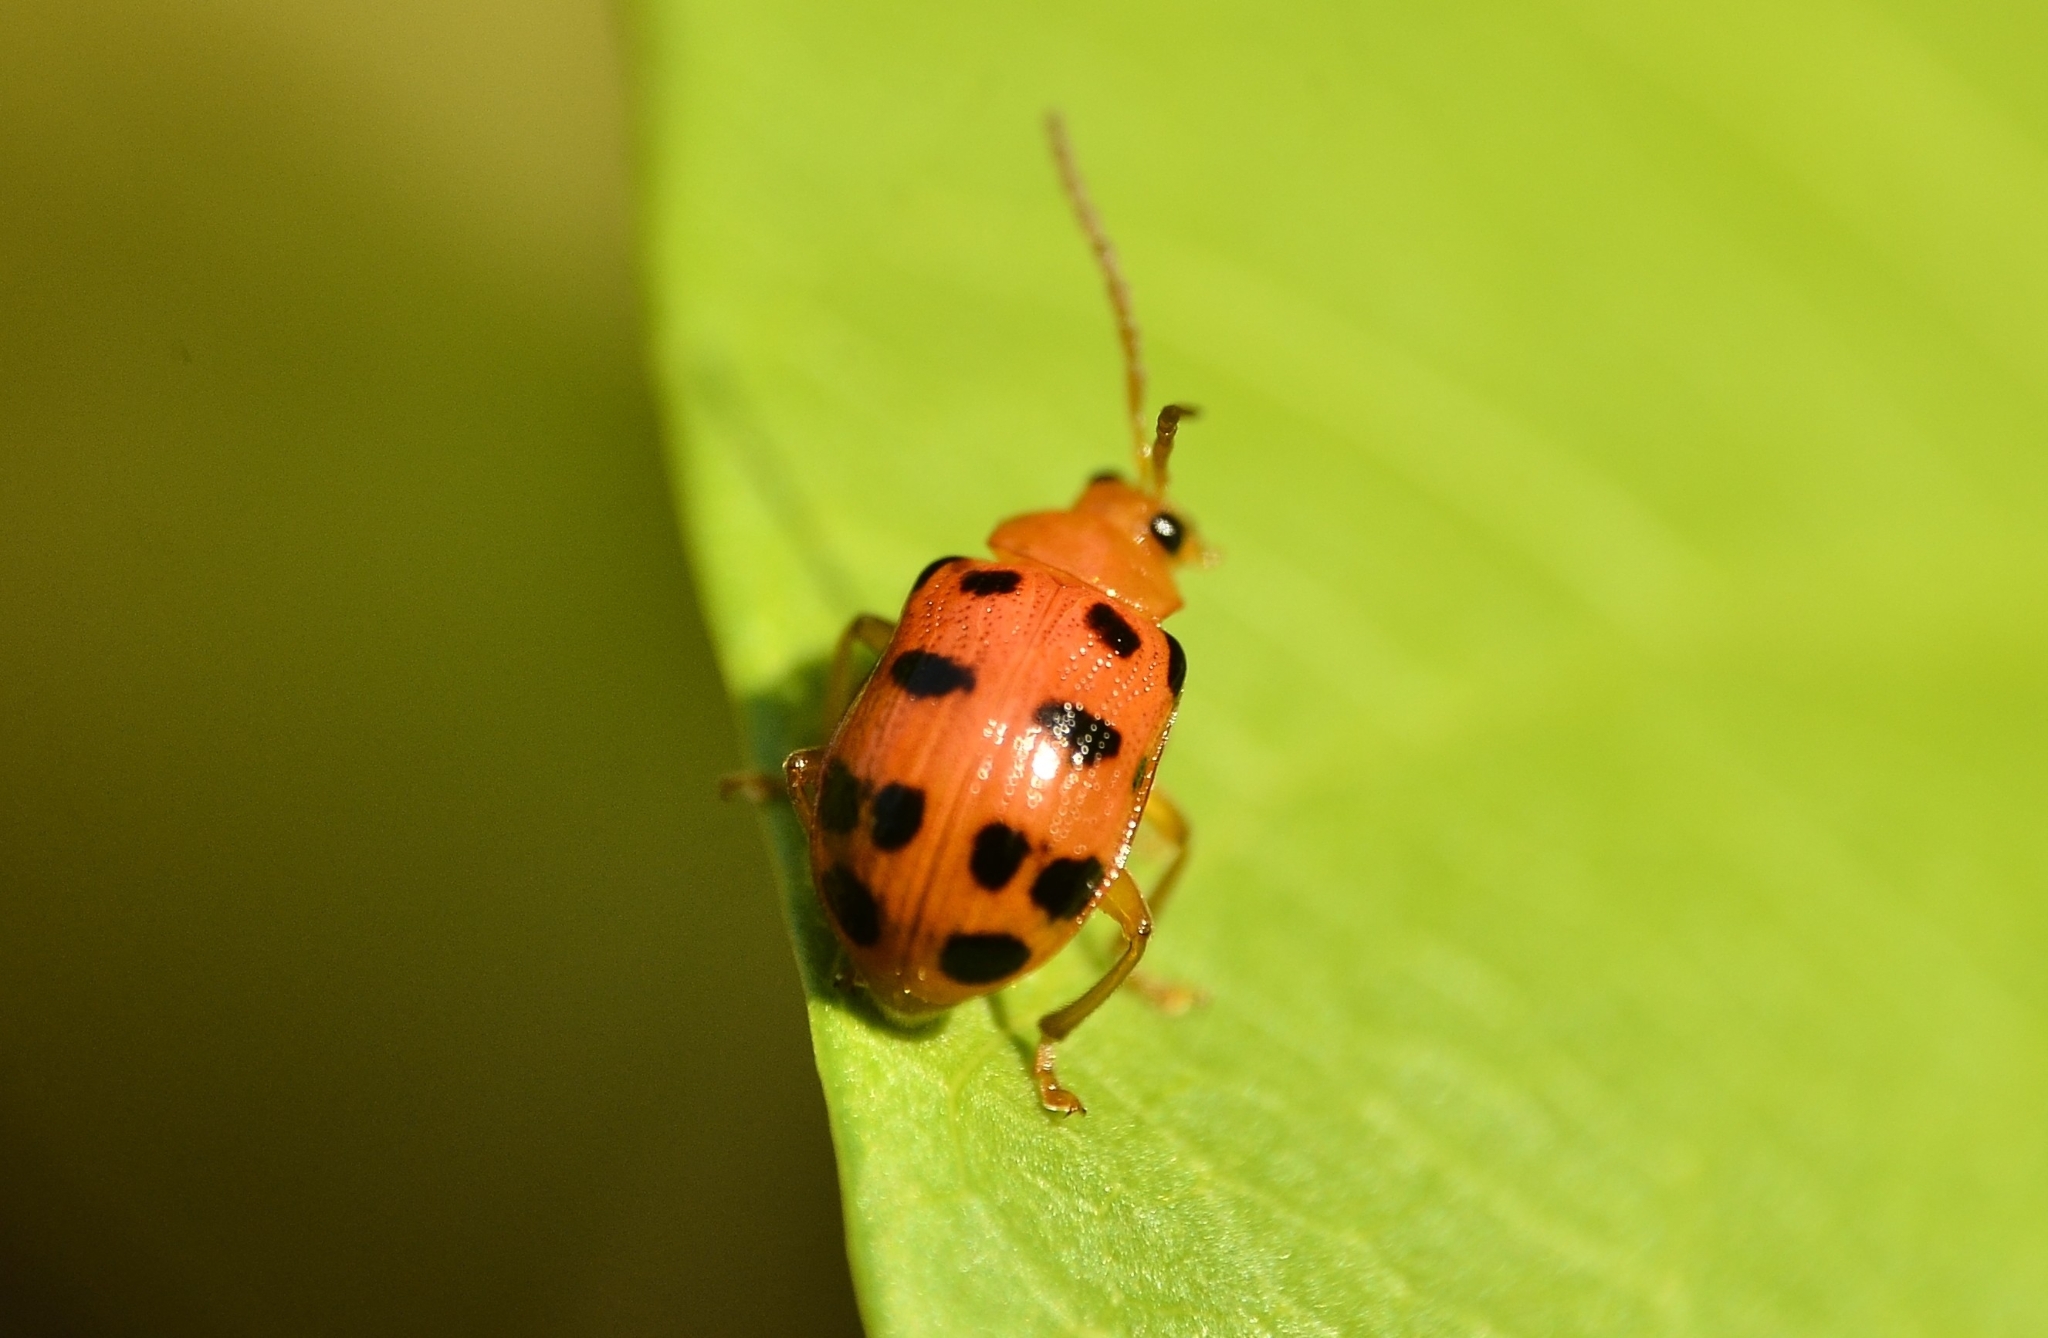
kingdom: Animalia
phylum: Arthropoda
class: Insecta
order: Coleoptera
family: Chrysomelidae
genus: Sphenoraia
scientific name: Sphenoraia
